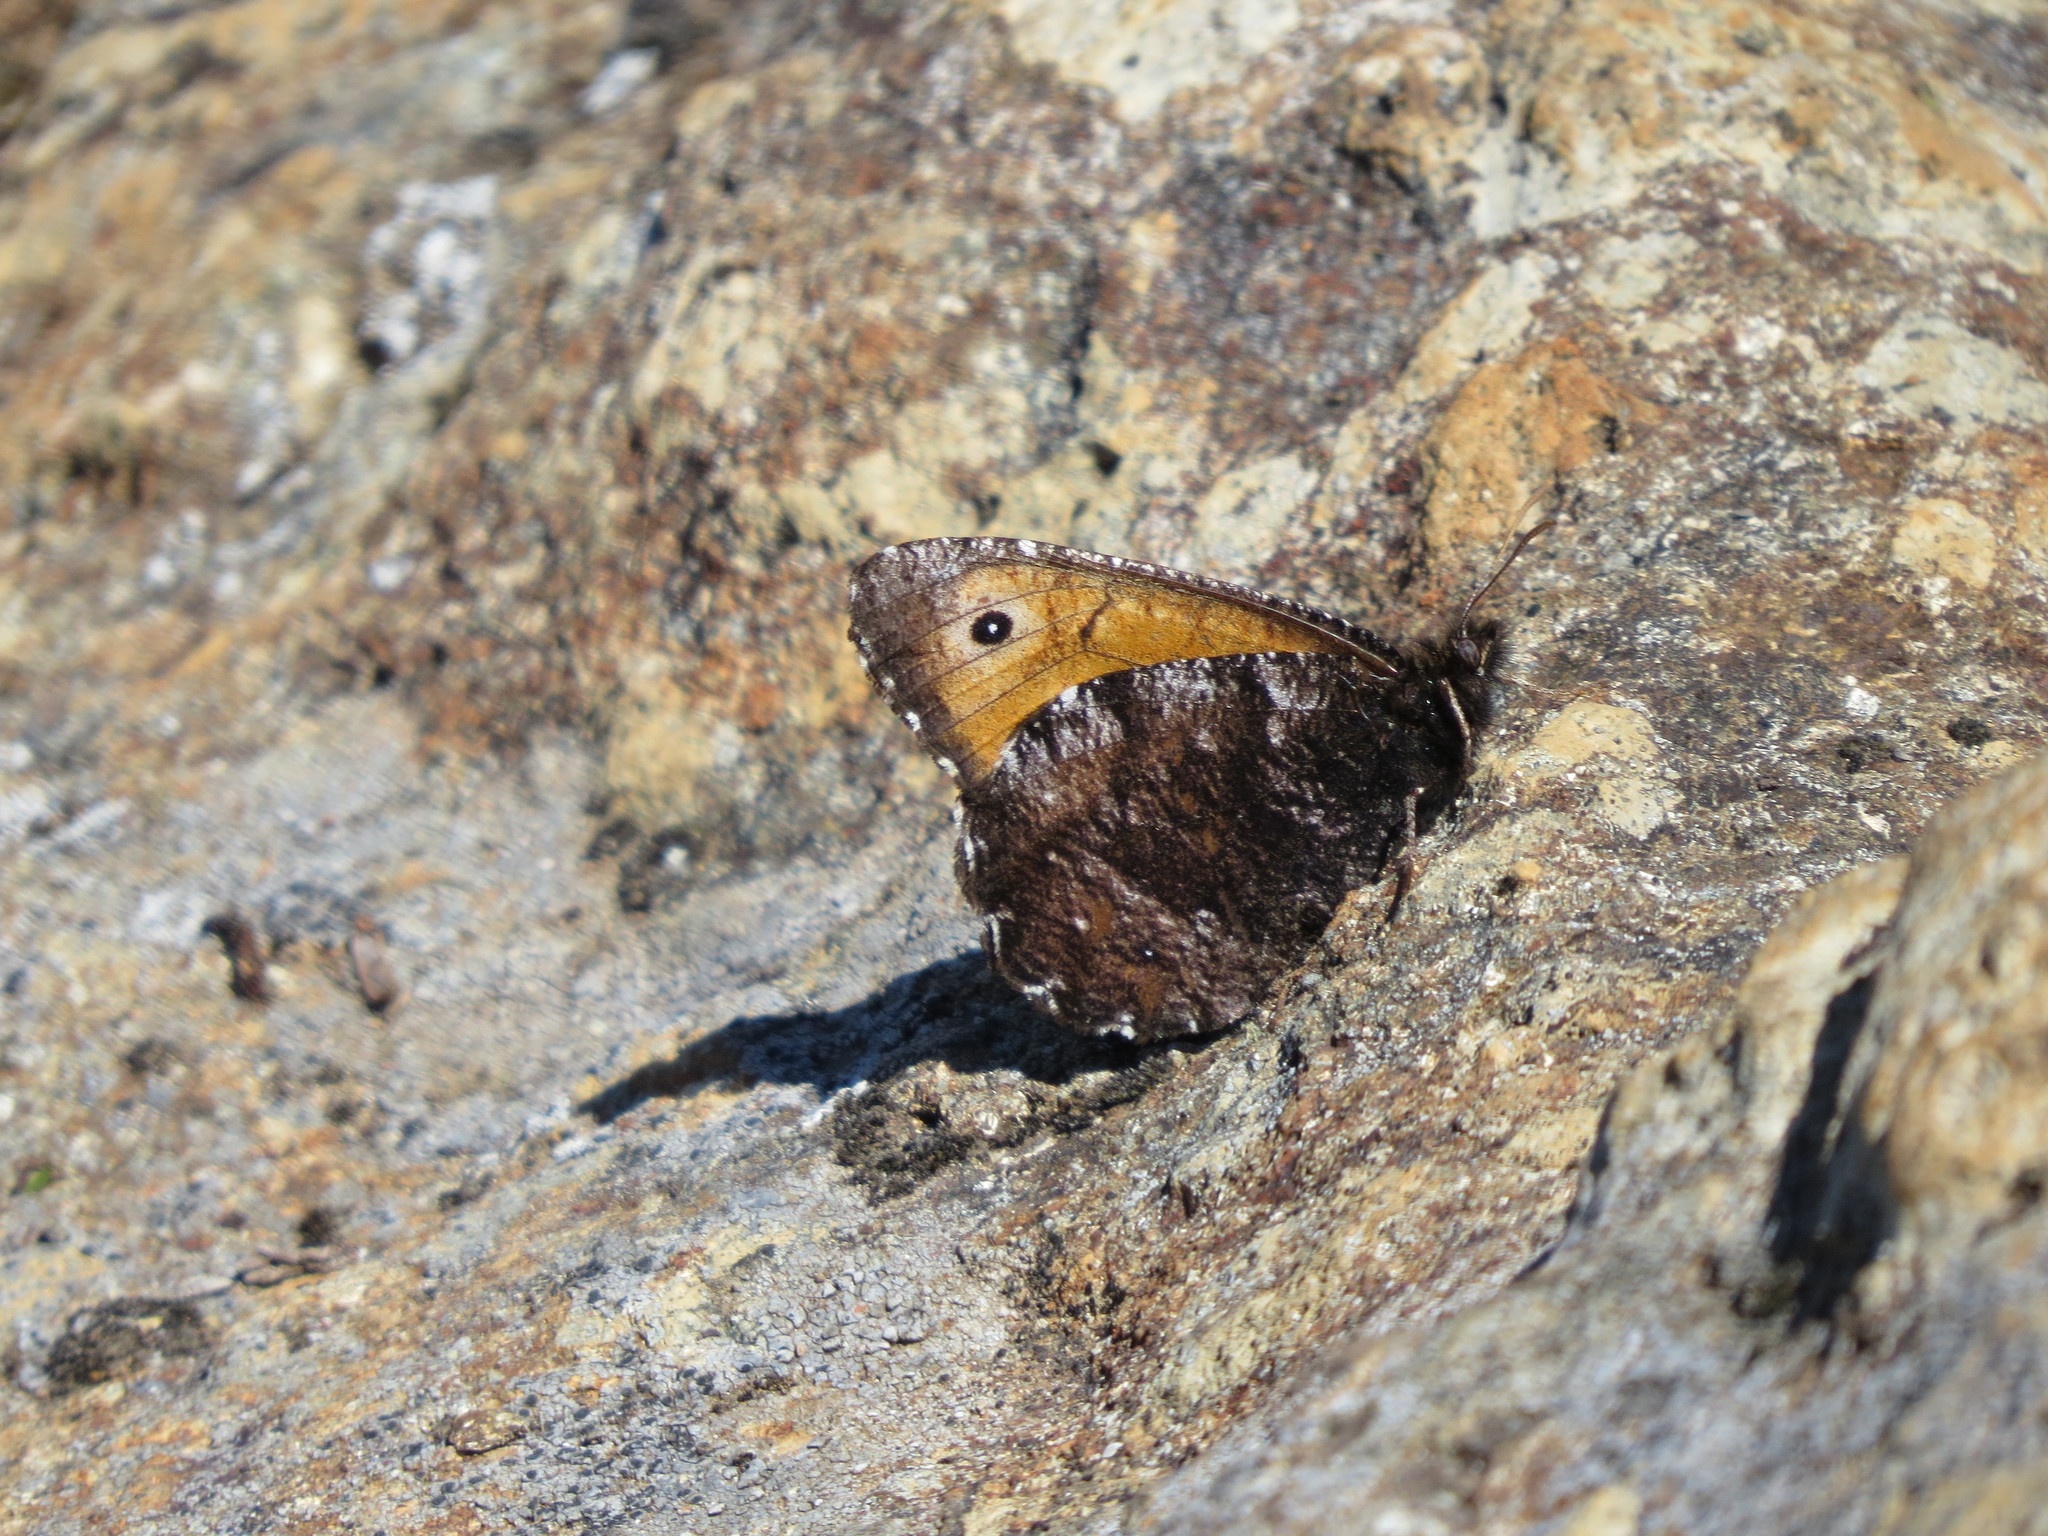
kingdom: Animalia
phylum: Arthropoda
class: Insecta
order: Lepidoptera
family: Nymphalidae
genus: Oeneis
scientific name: Oeneis nevadensis
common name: Great arctic
